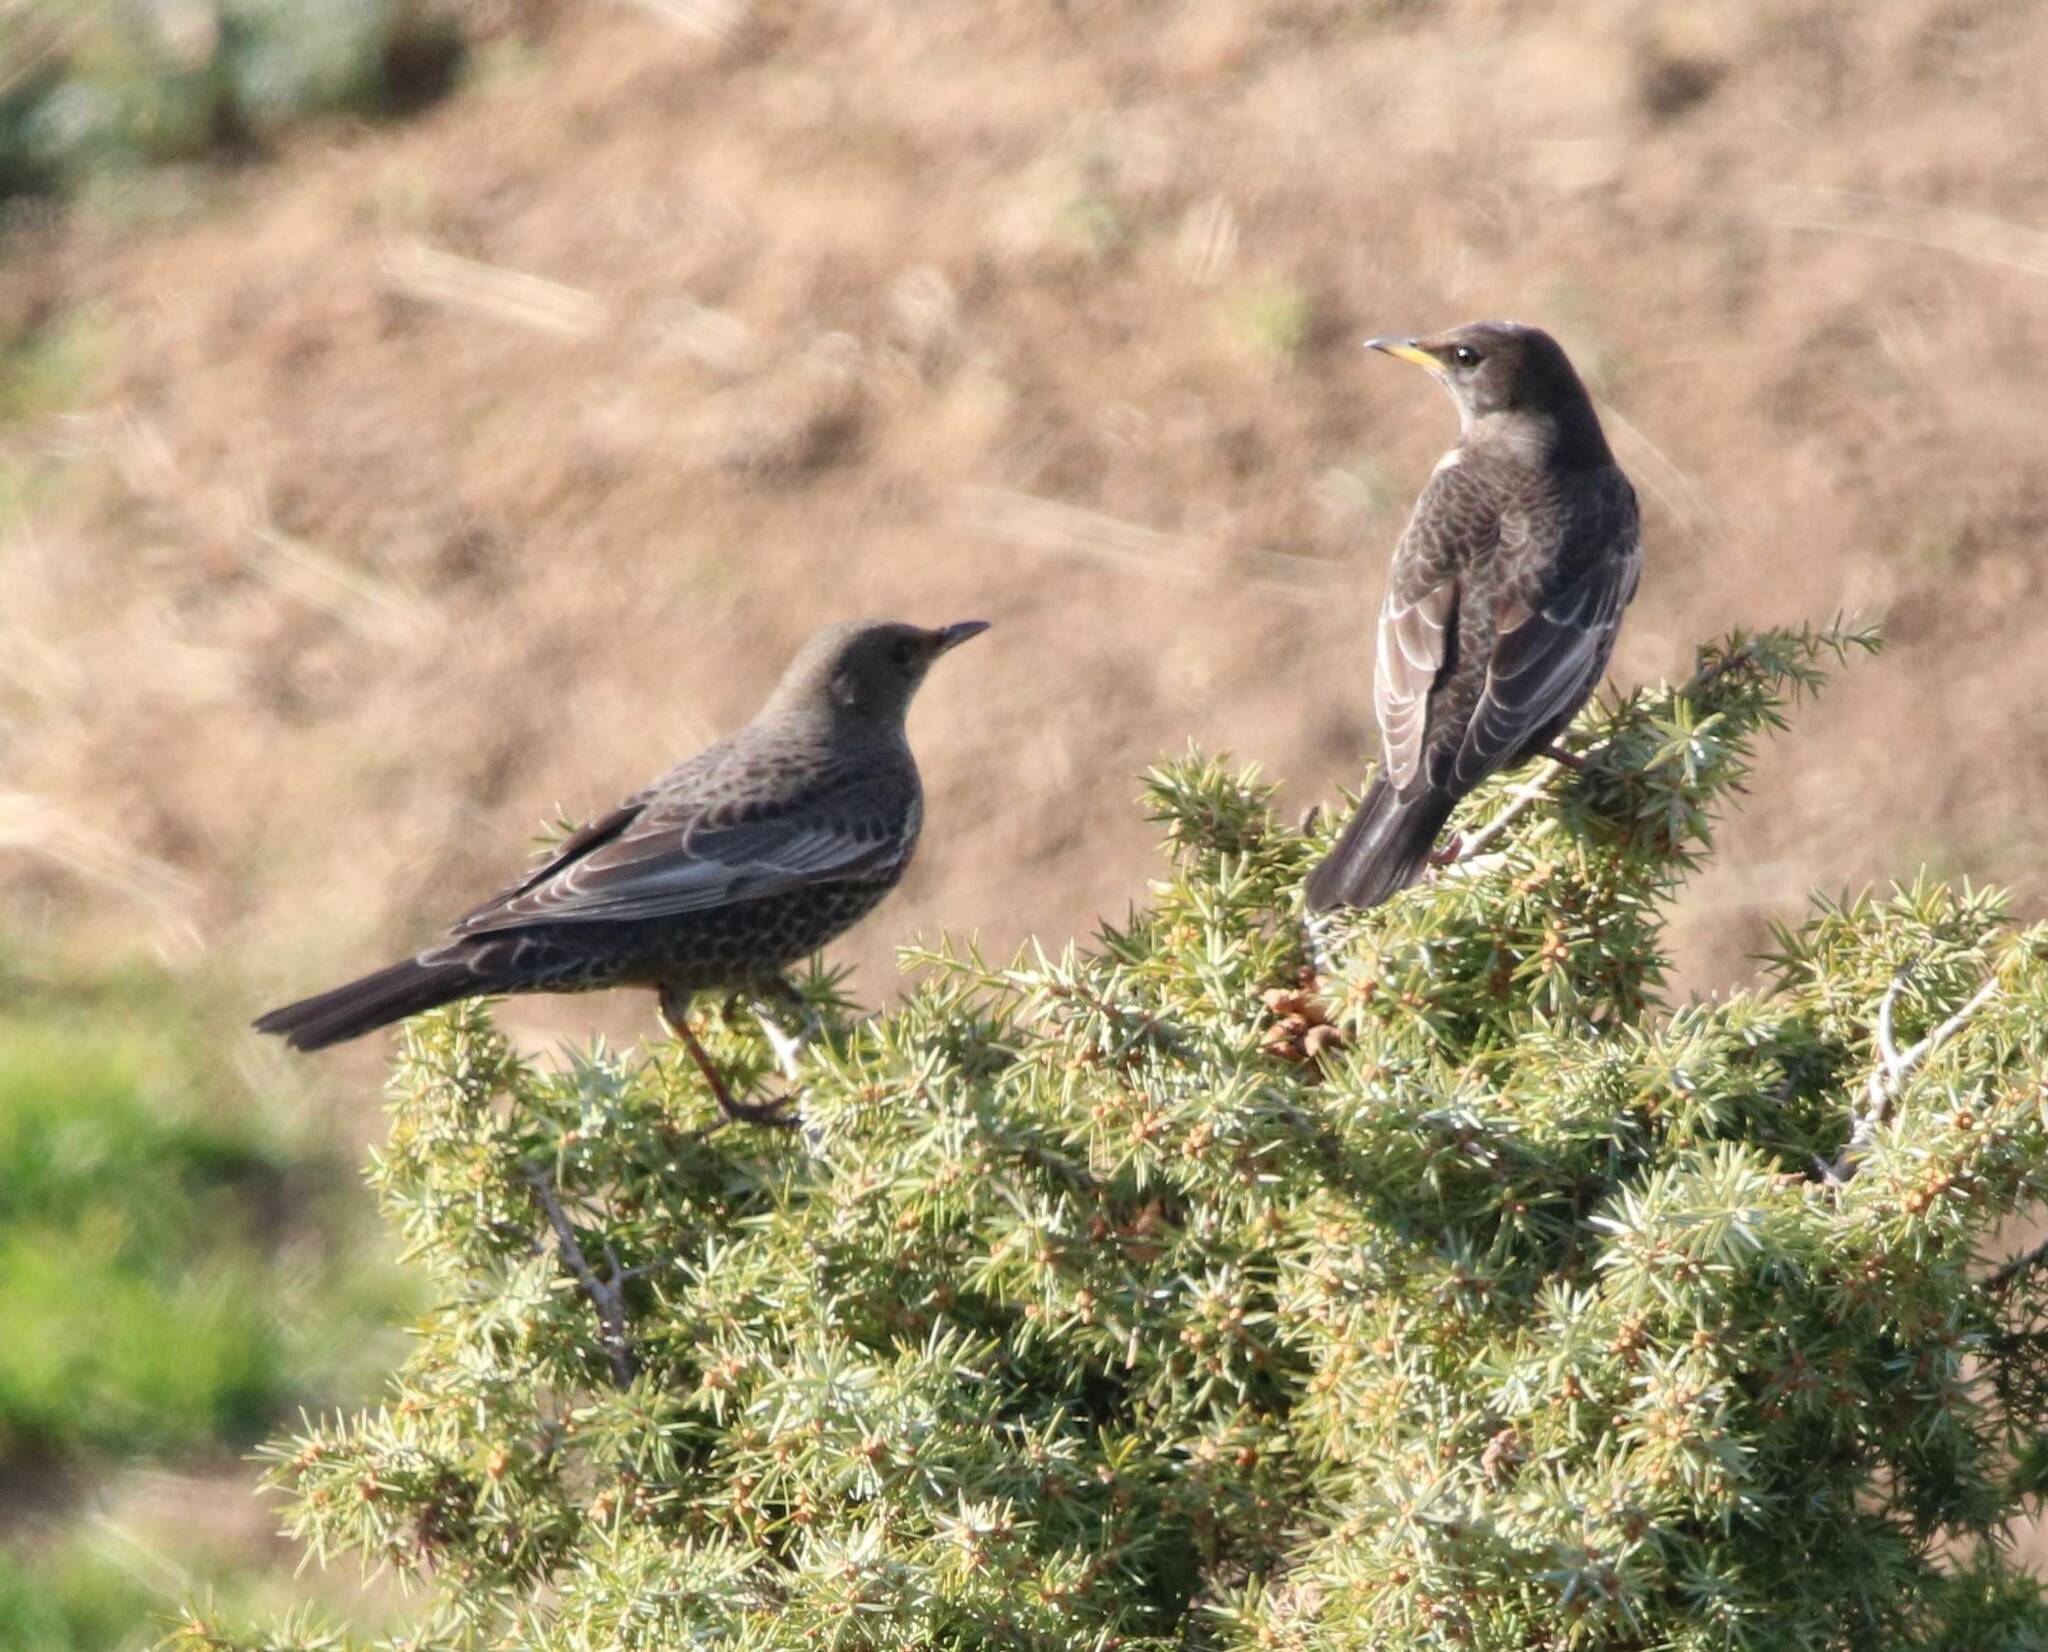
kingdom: Animalia
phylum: Chordata
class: Aves
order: Passeriformes
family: Turdidae
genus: Turdus
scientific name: Turdus torquatus
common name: Ring ouzel
